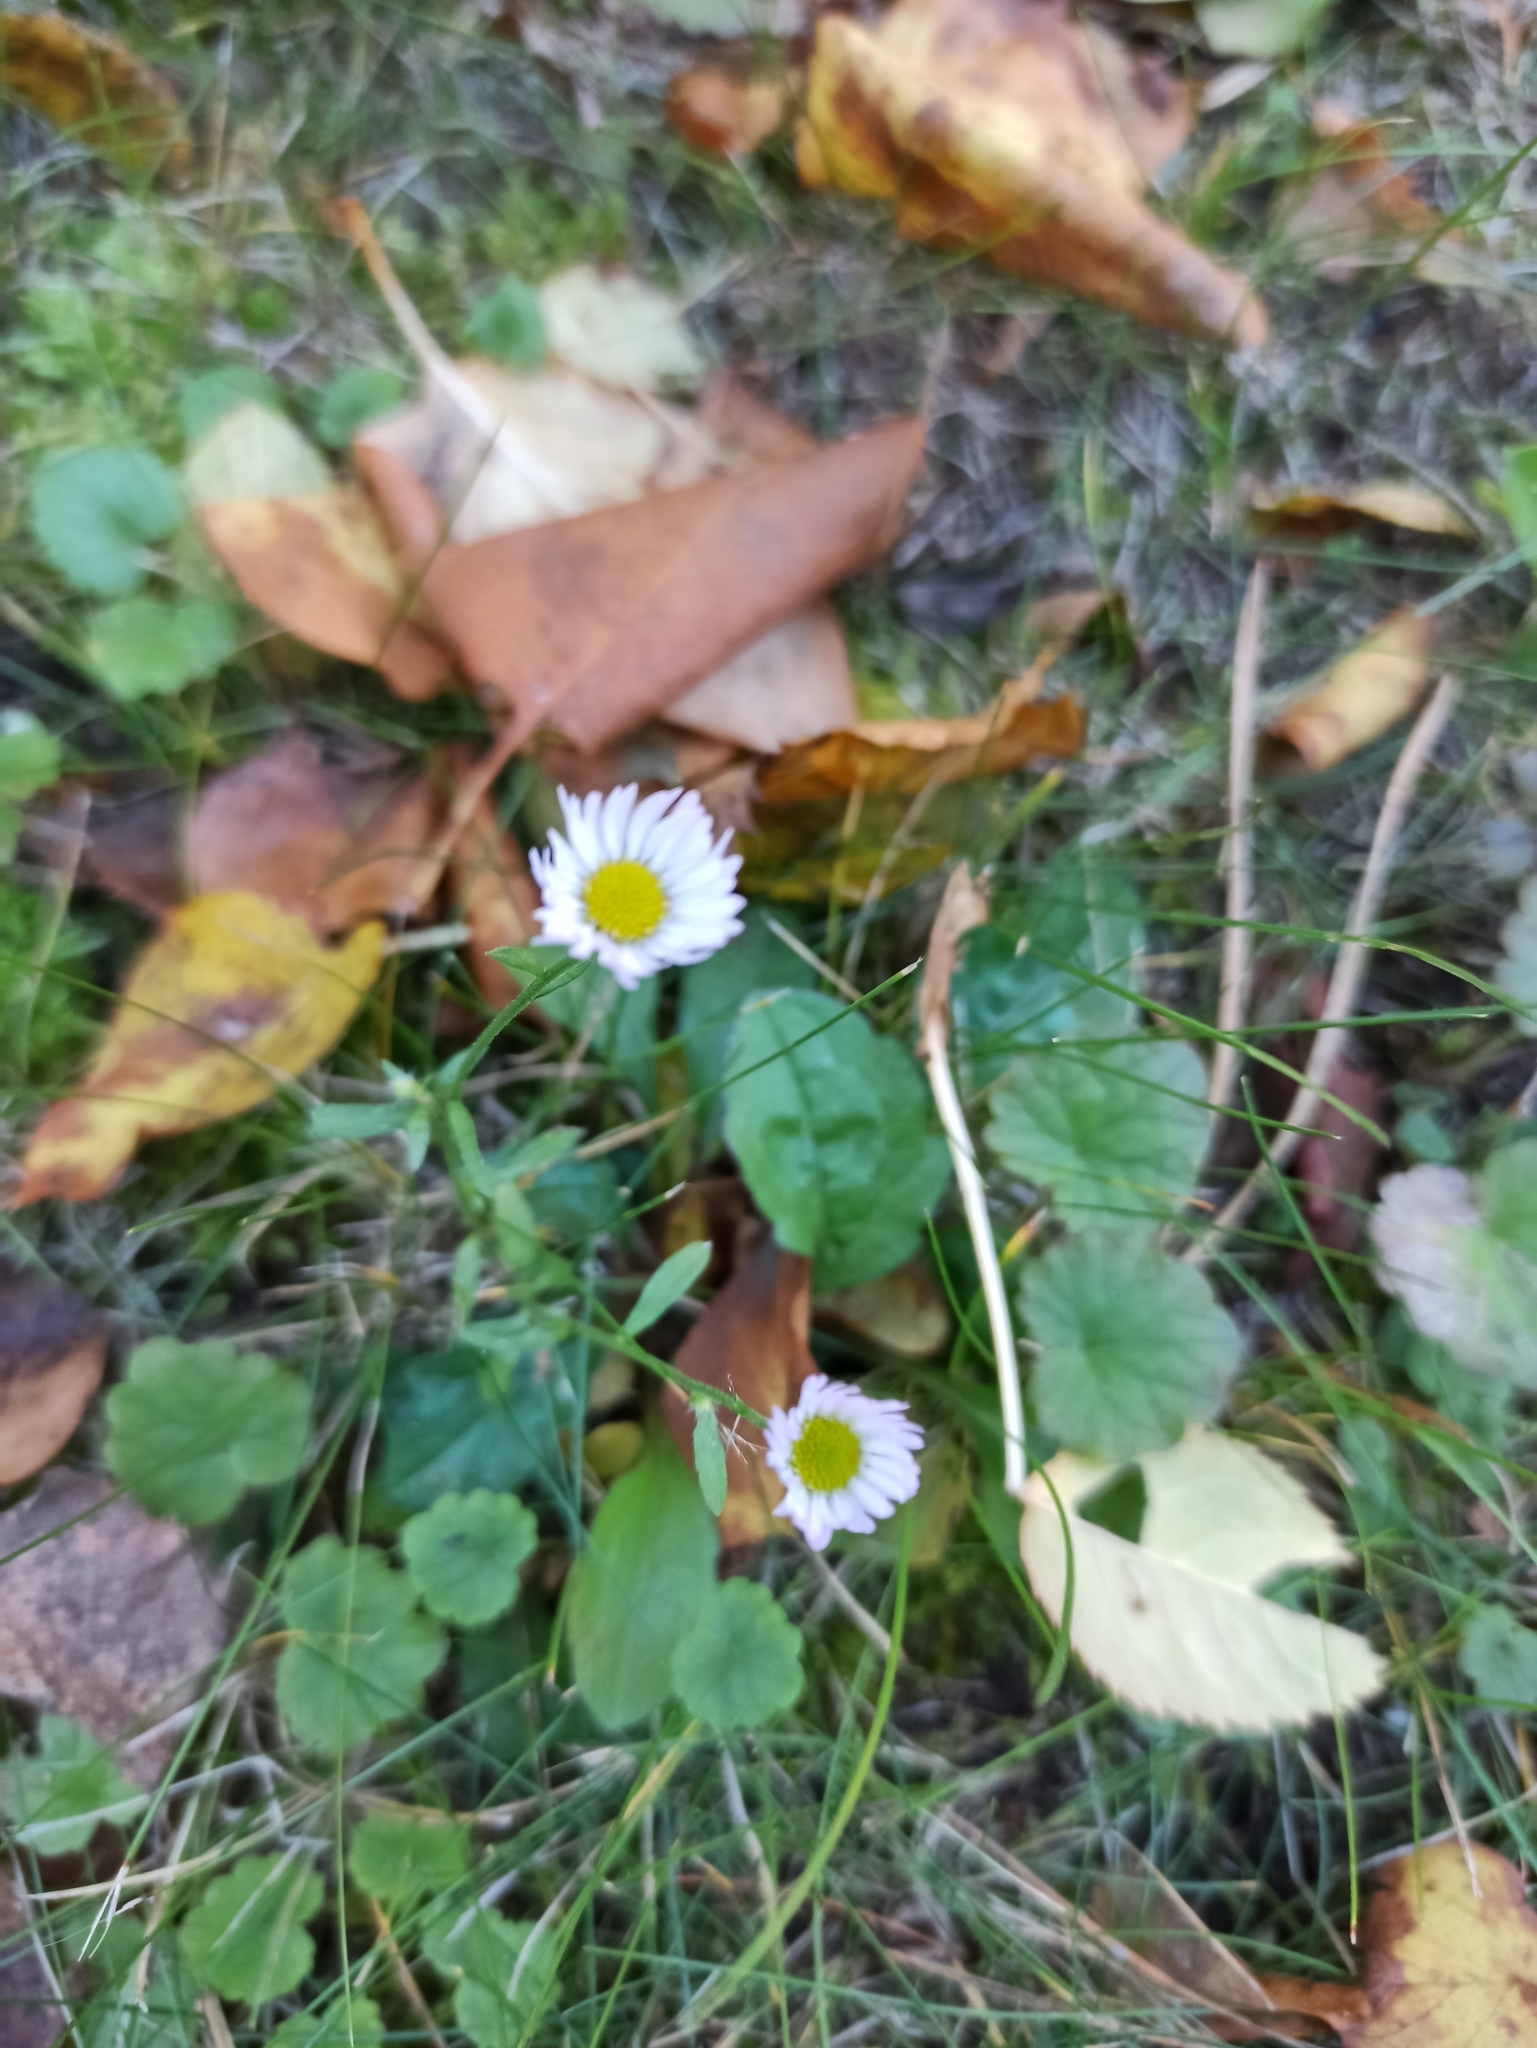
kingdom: Plantae
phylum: Tracheophyta
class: Magnoliopsida
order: Asterales
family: Asteraceae
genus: Erigeron
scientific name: Erigeron annuus
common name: Tall fleabane
